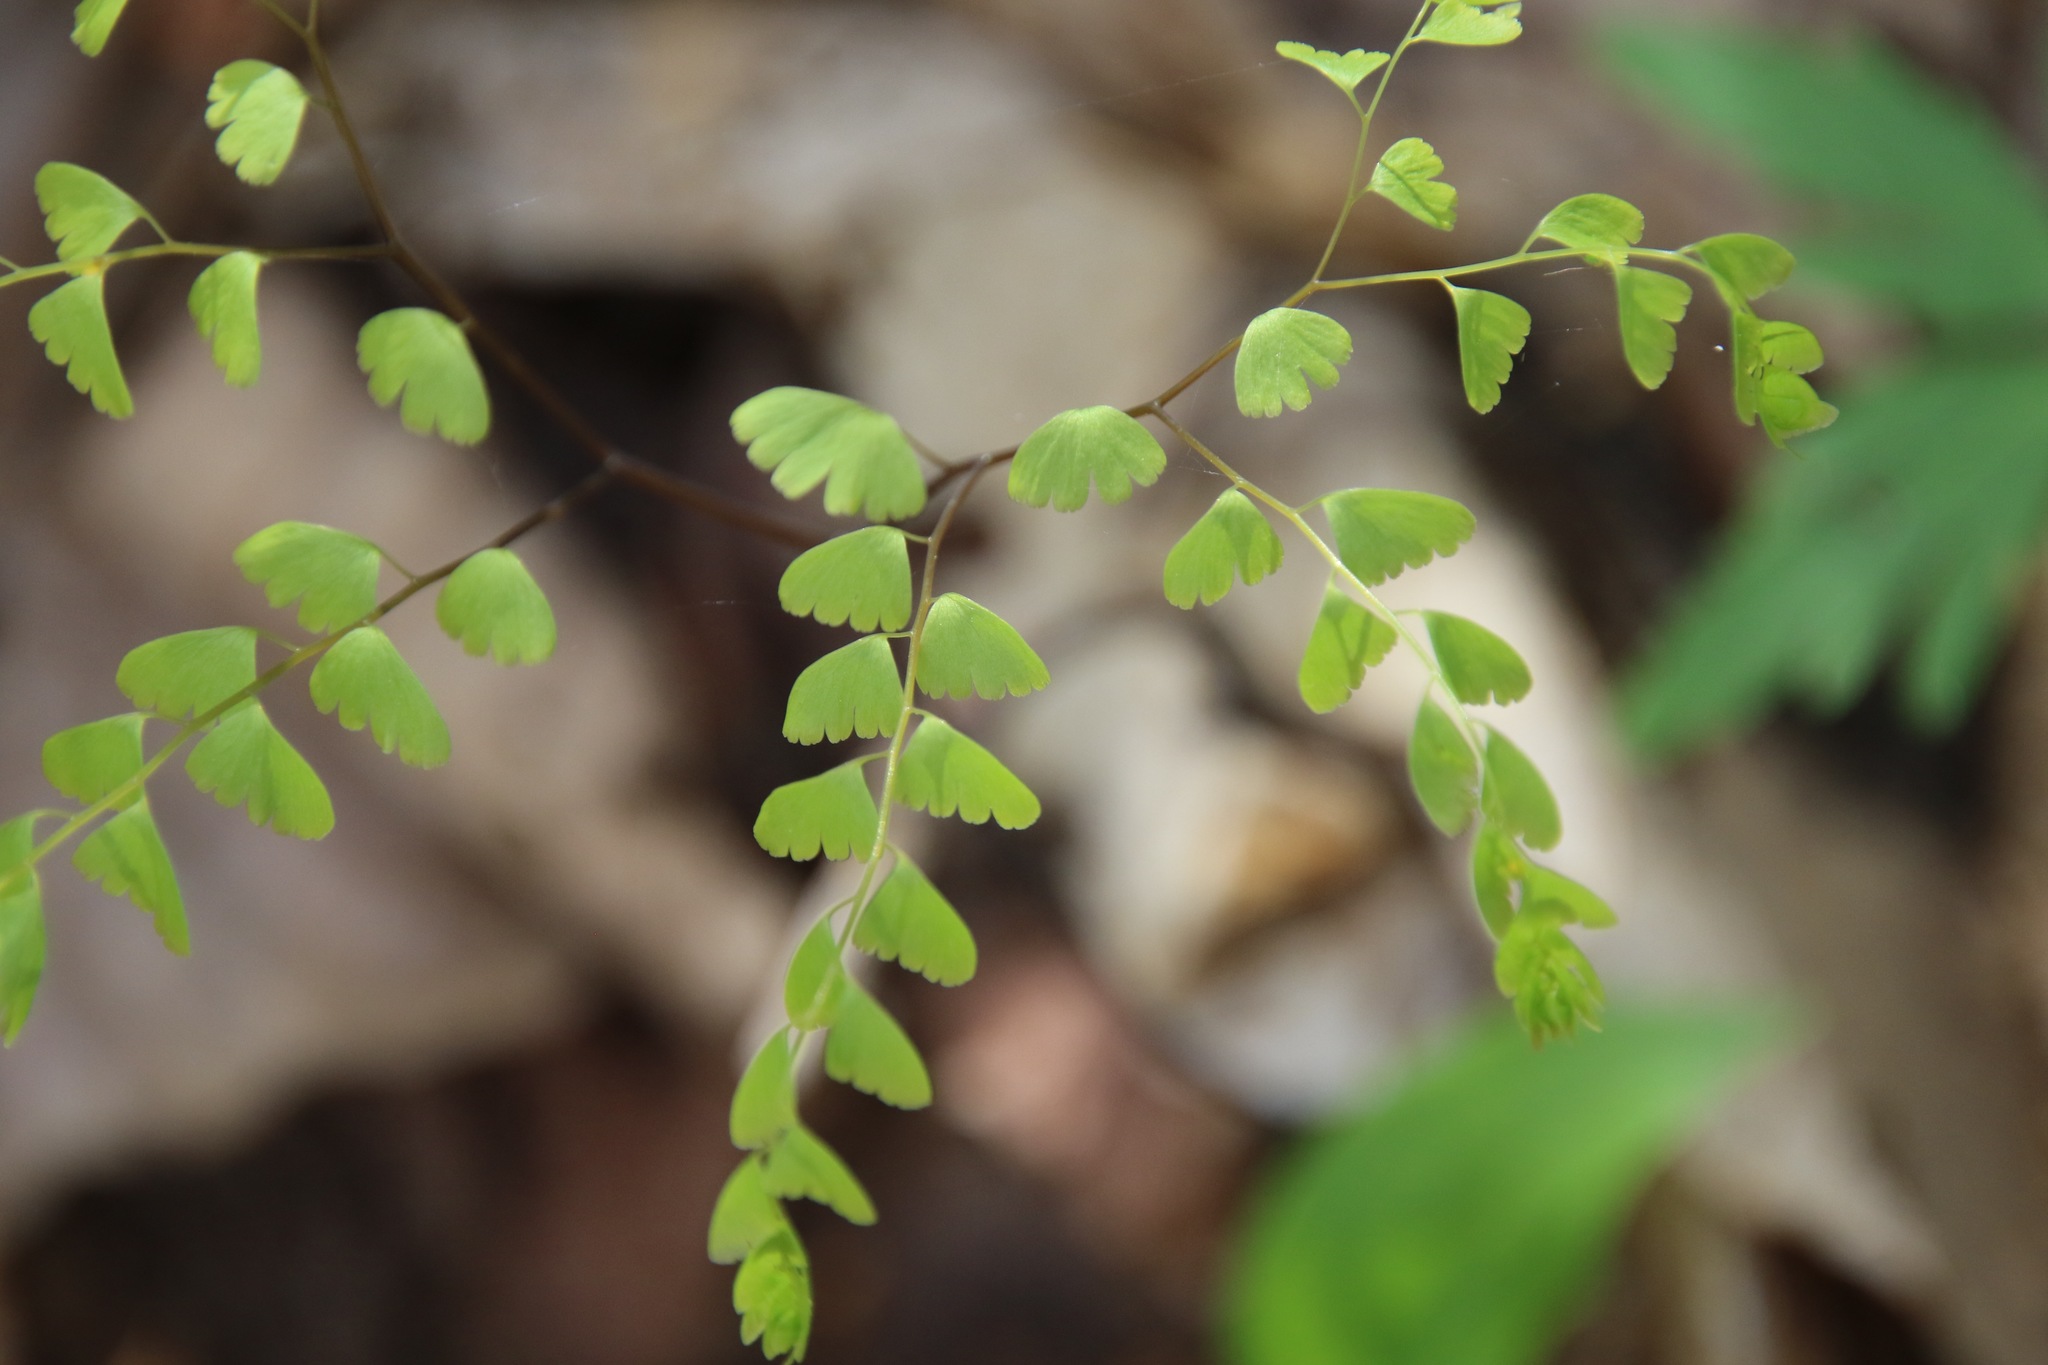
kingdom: Plantae
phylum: Tracheophyta
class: Polypodiopsida
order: Polypodiales
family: Pteridaceae
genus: Adiantum
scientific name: Adiantum pedatum
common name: Five-finger fern
